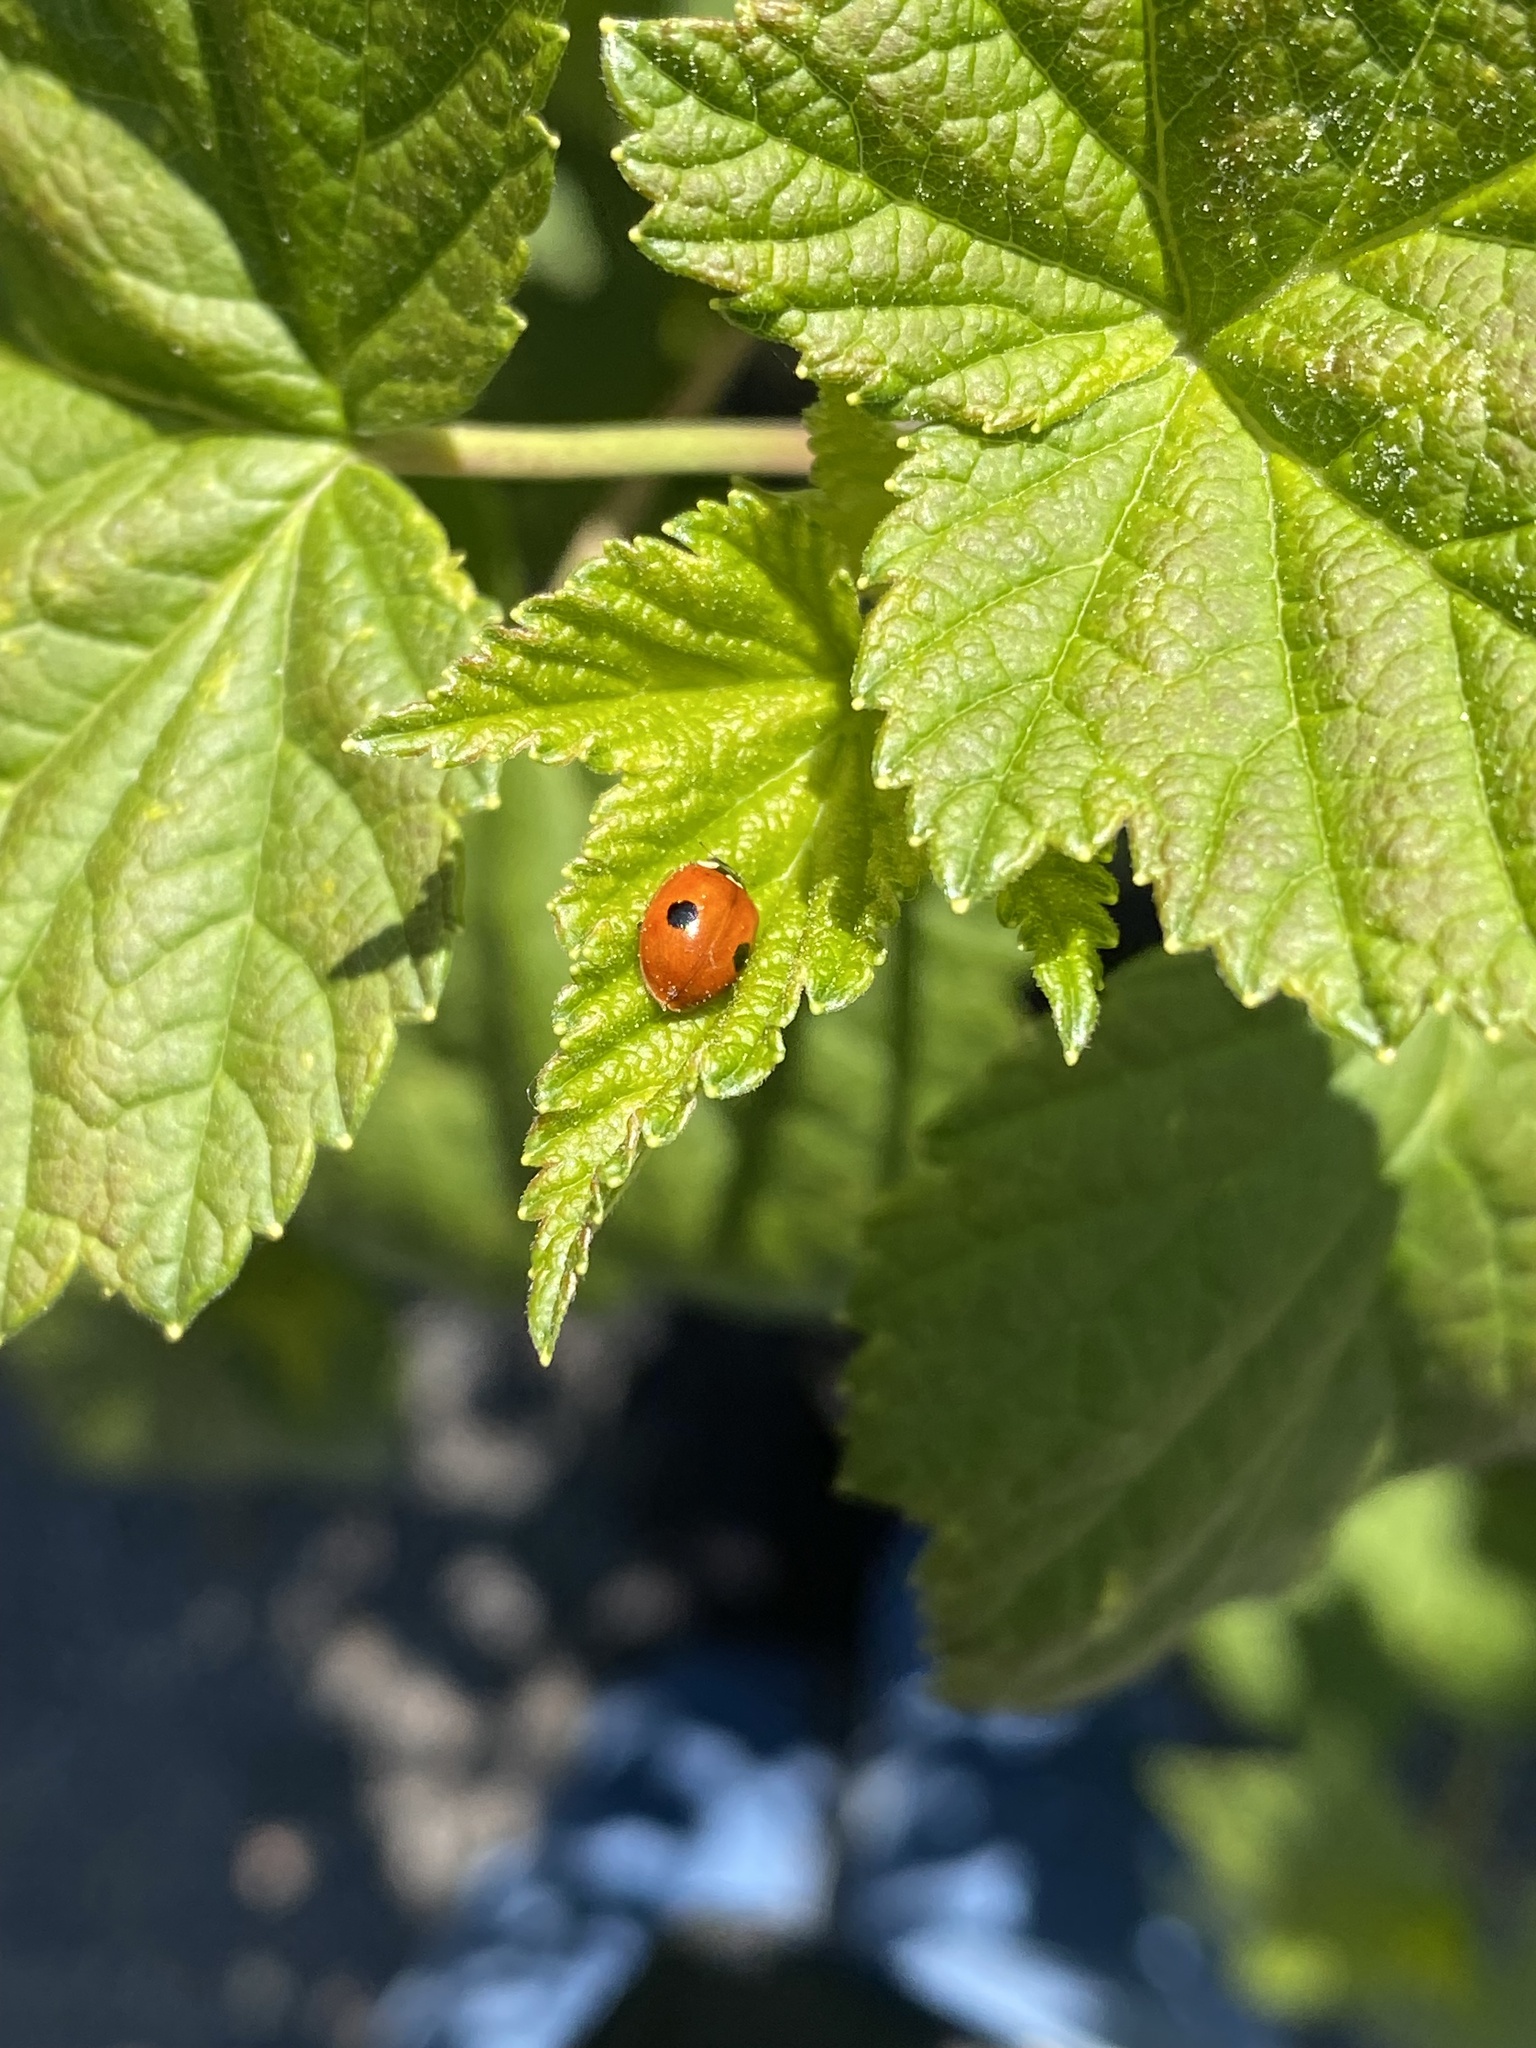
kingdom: Animalia
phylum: Arthropoda
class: Insecta
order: Coleoptera
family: Coccinellidae
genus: Adalia
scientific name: Adalia bipunctata
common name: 2-spot ladybird
